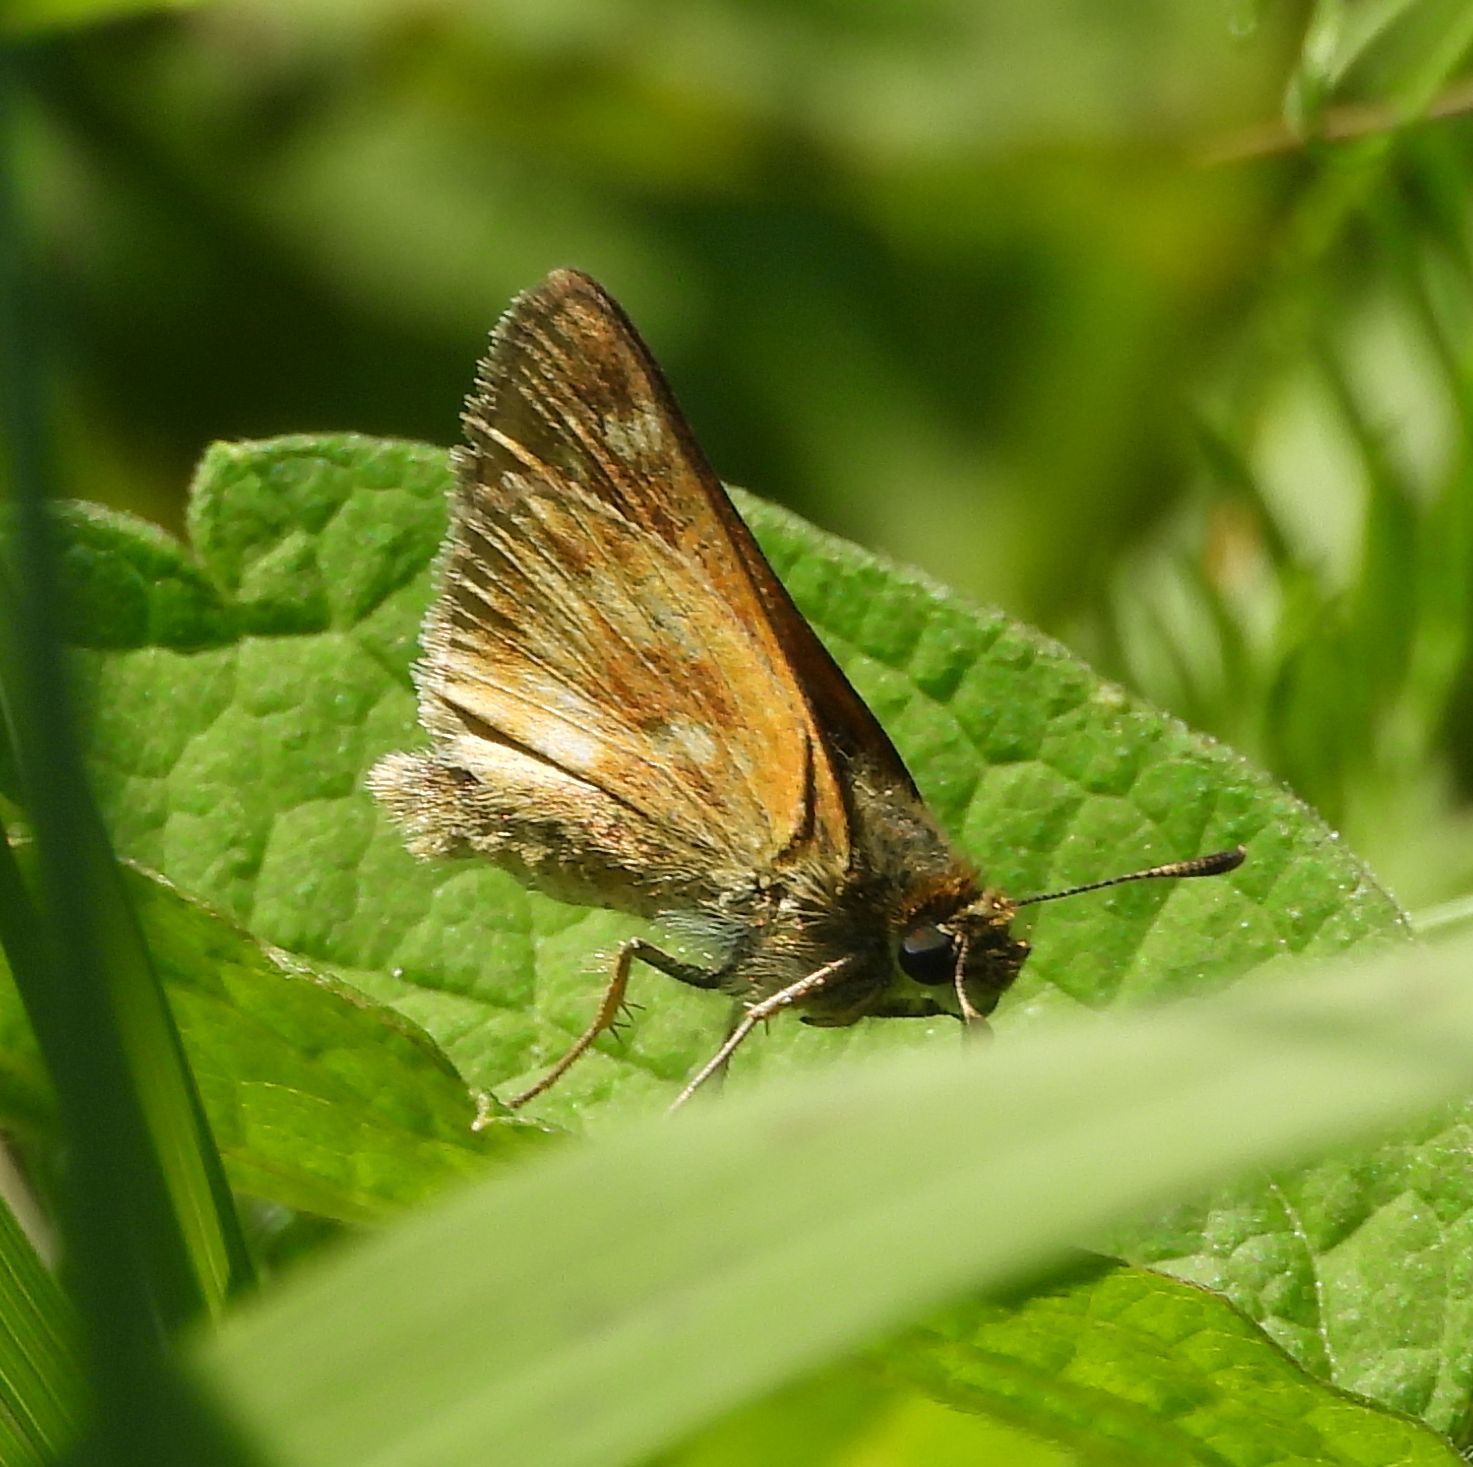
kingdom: Animalia
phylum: Arthropoda
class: Insecta
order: Lepidoptera
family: Hesperiidae
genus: Polites
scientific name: Polites mystic
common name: Long dash
